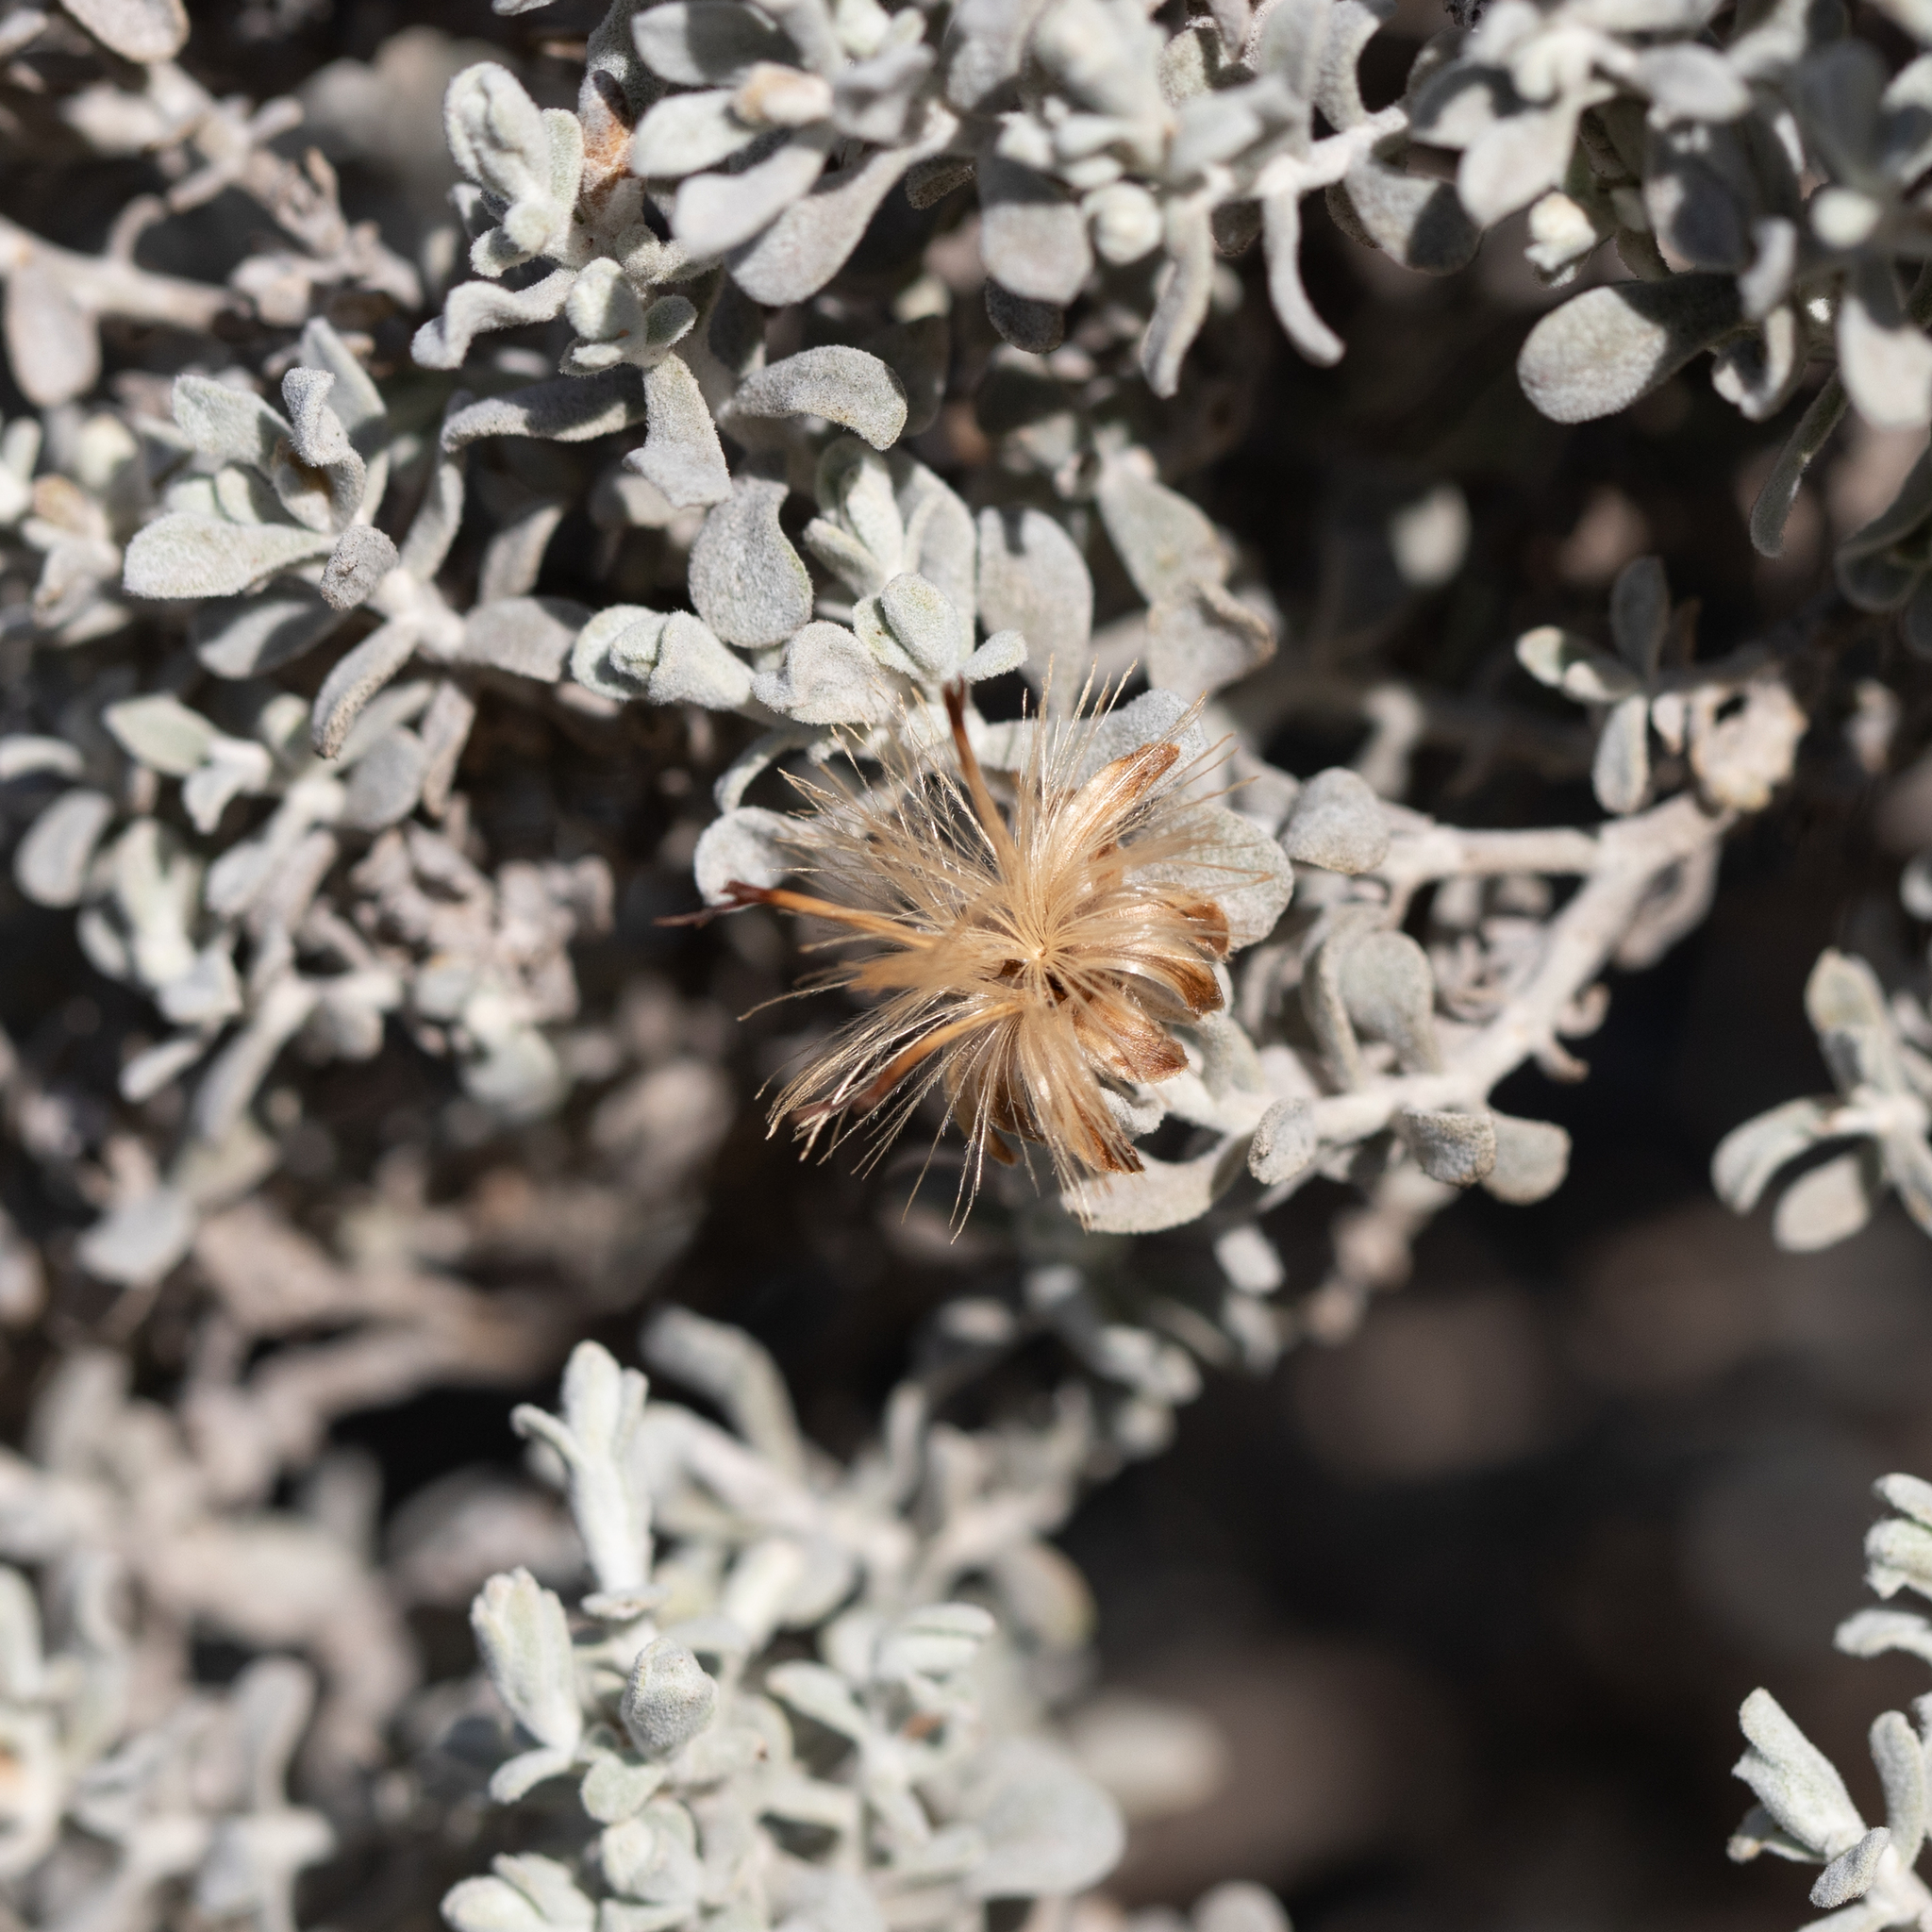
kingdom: Plantae
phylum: Tracheophyta
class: Magnoliopsida
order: Asterales
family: Asteraceae
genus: Cratystylis
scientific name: Cratystylis conocephala
